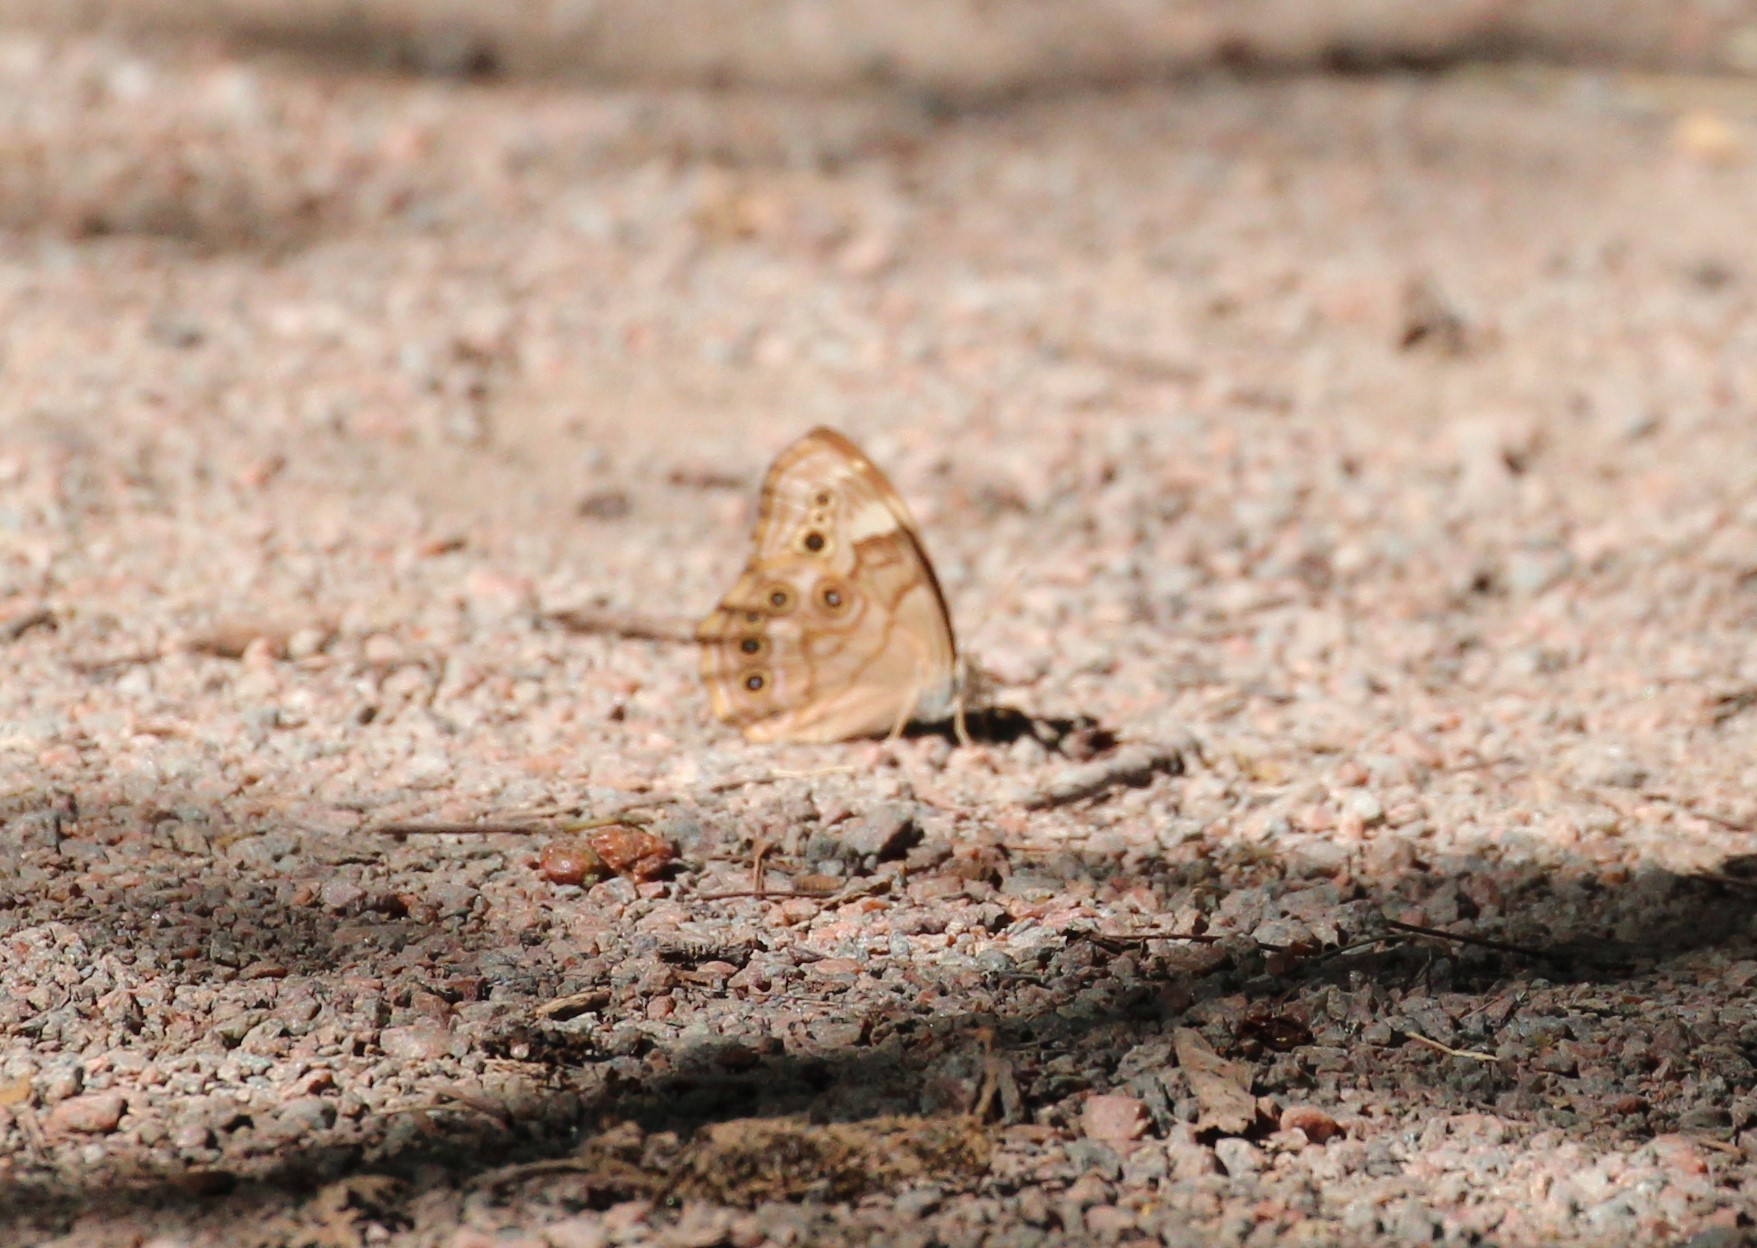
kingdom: Animalia
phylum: Arthropoda
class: Insecta
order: Lepidoptera
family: Nymphalidae
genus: Lethe
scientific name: Lethe anthedon
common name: Northern pearly-eye
